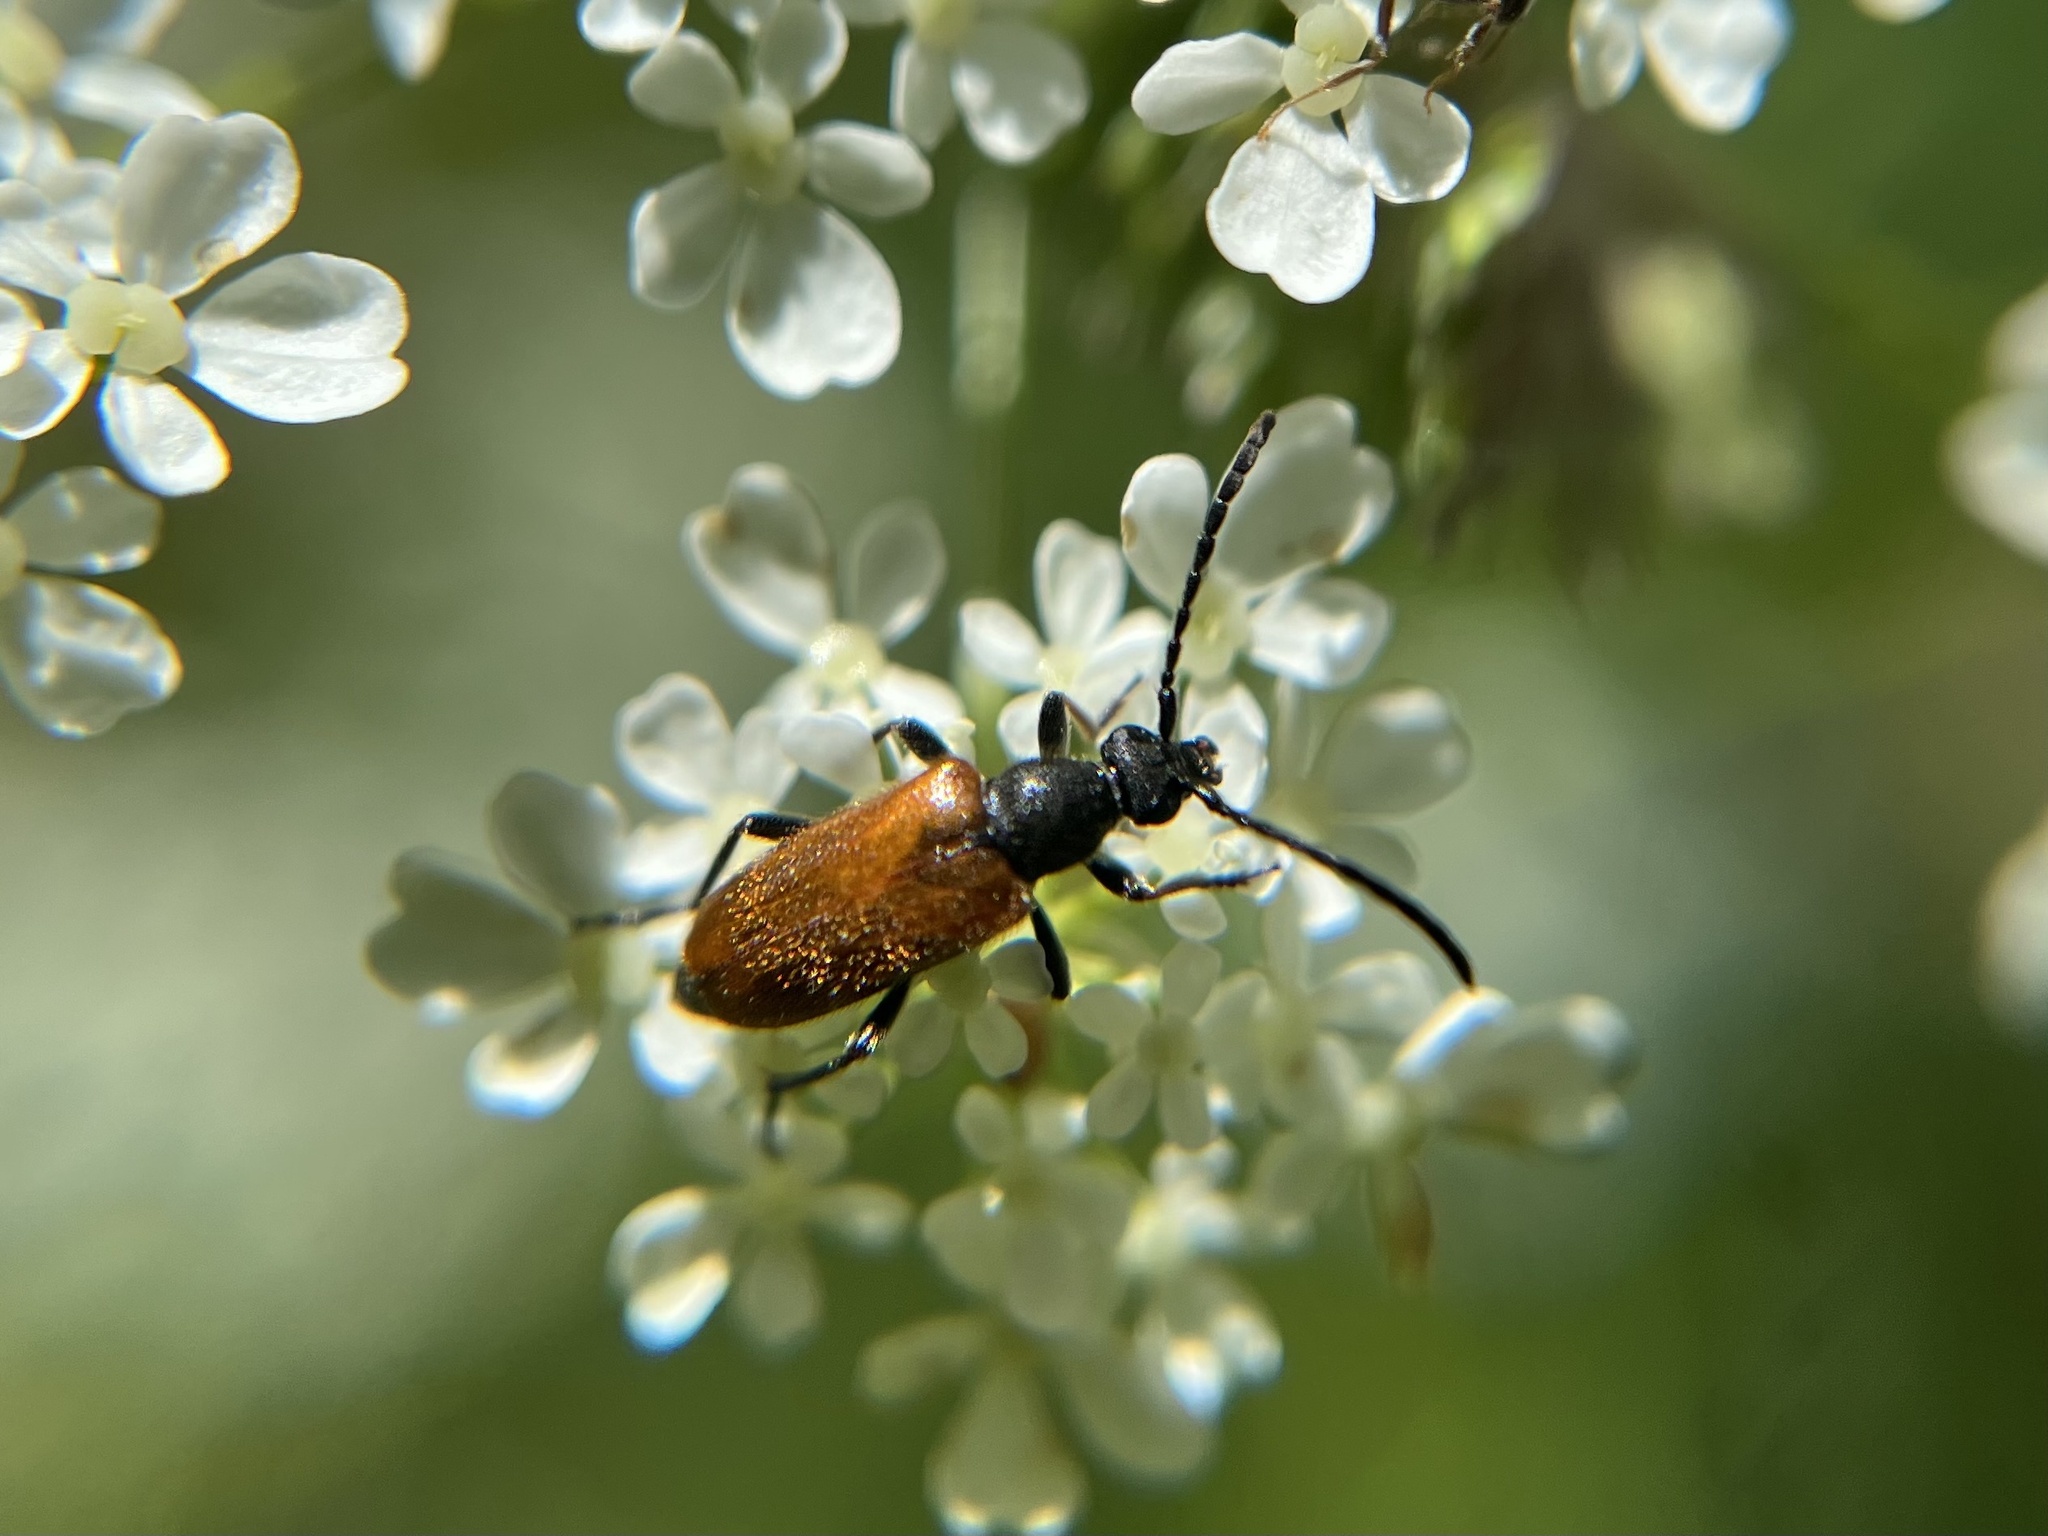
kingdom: Animalia
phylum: Arthropoda
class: Insecta
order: Coleoptera
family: Cerambycidae
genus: Pseudovadonia
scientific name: Pseudovadonia livida
